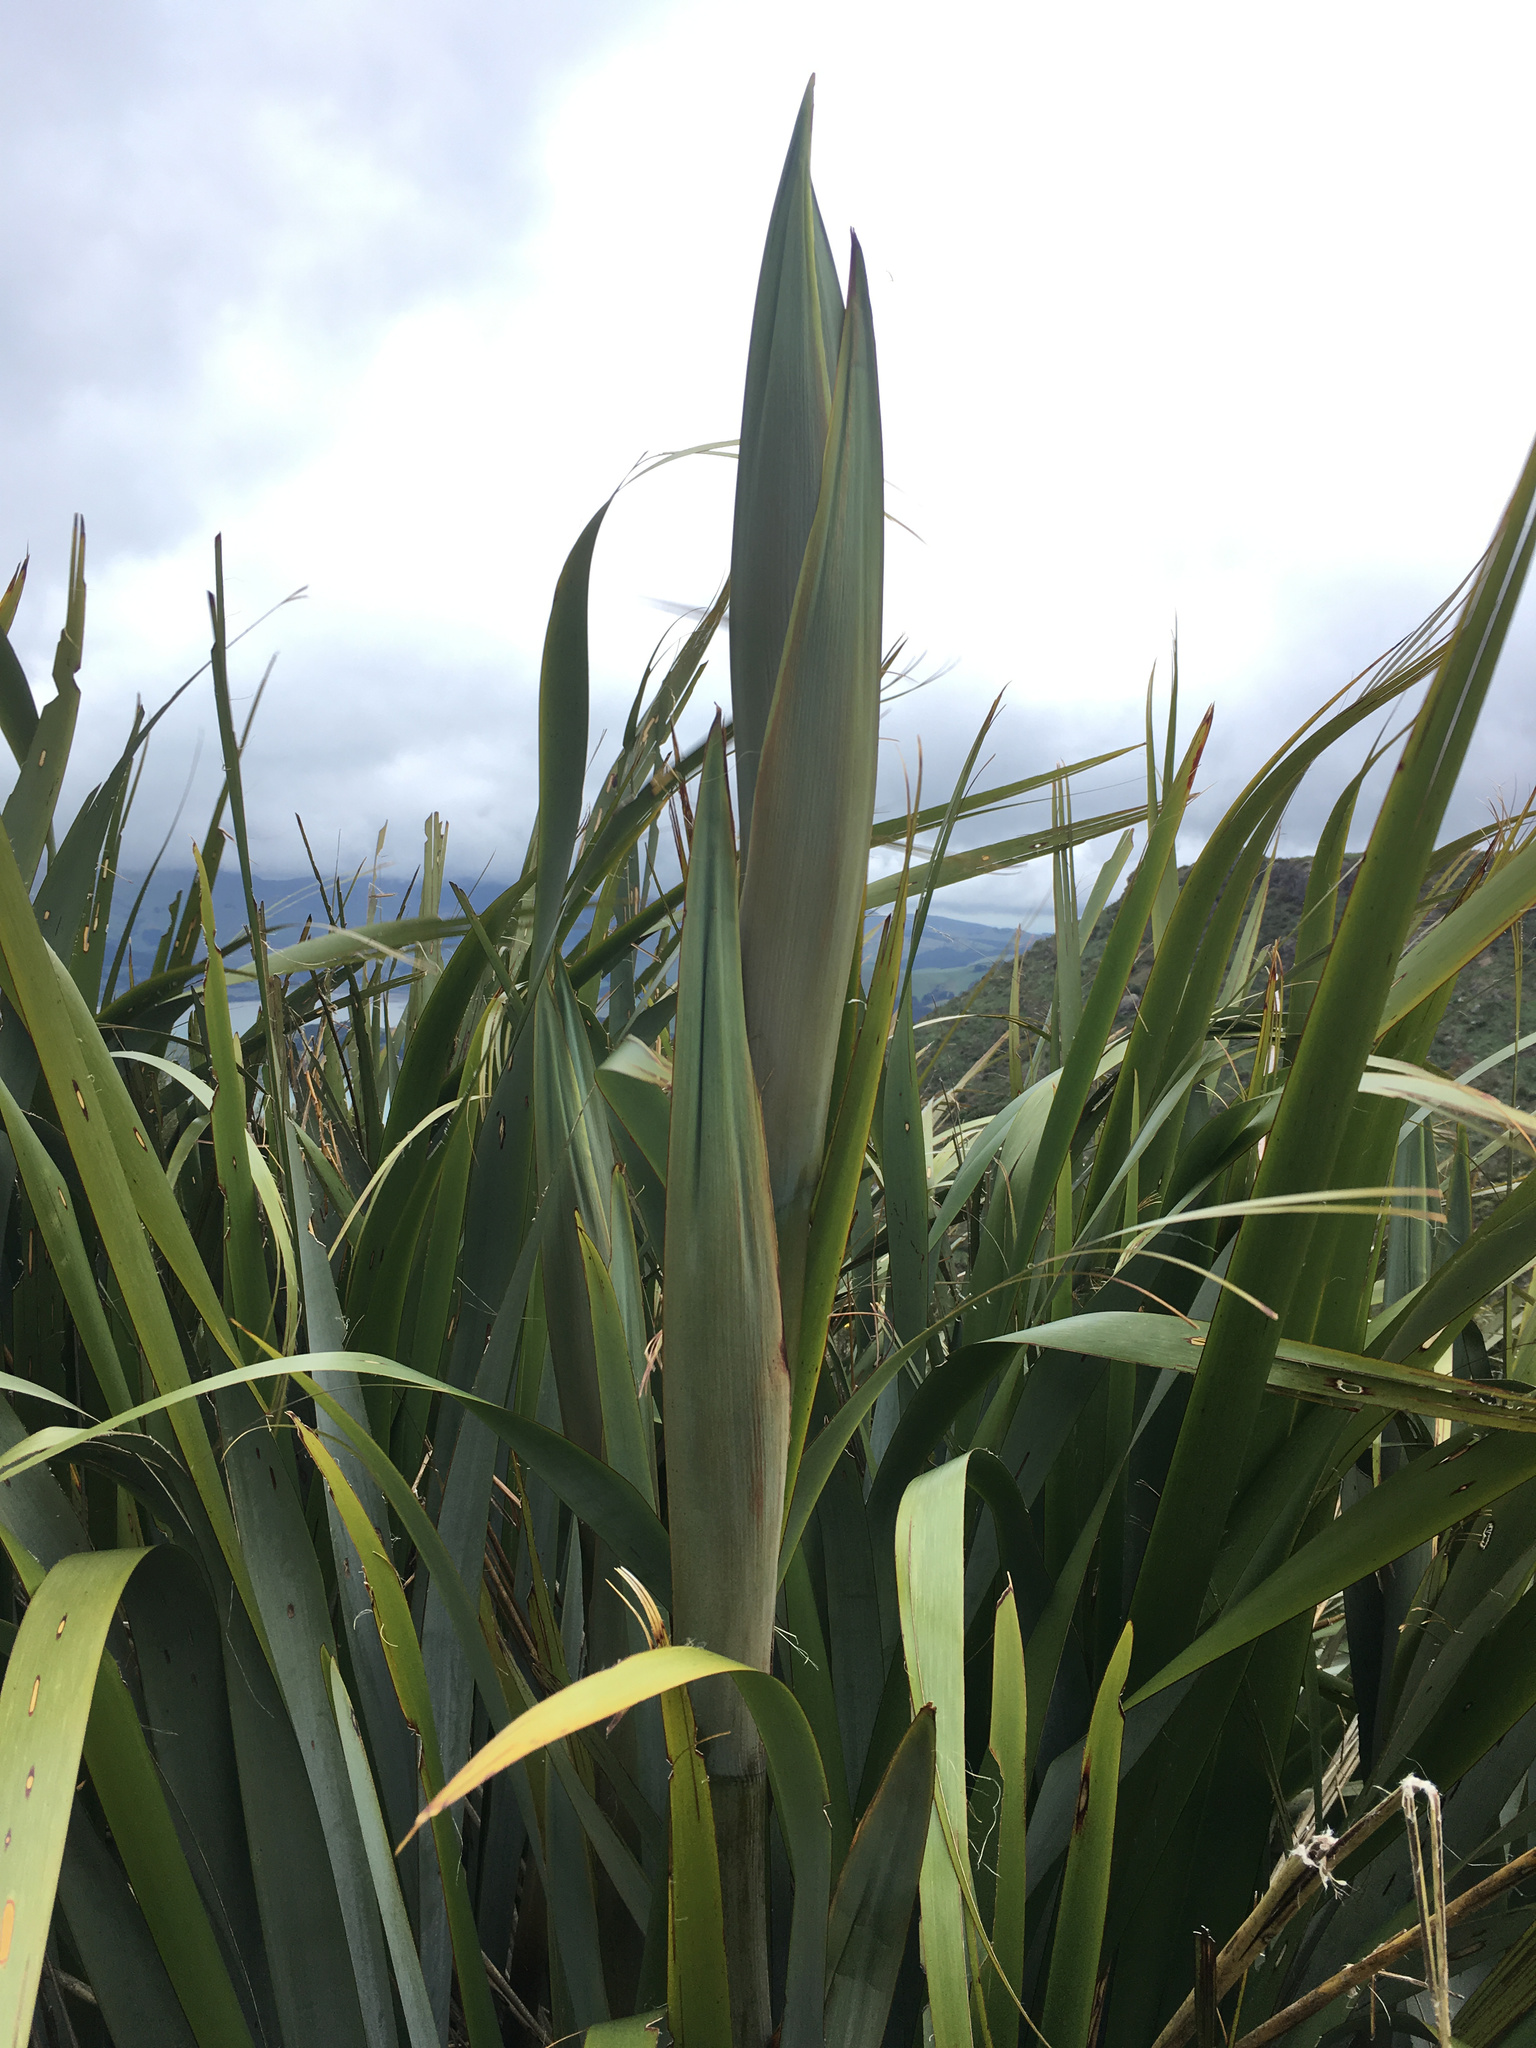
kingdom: Plantae
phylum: Tracheophyta
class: Liliopsida
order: Asparagales
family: Asphodelaceae
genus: Phormium
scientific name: Phormium tenax
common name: New zealand flax
